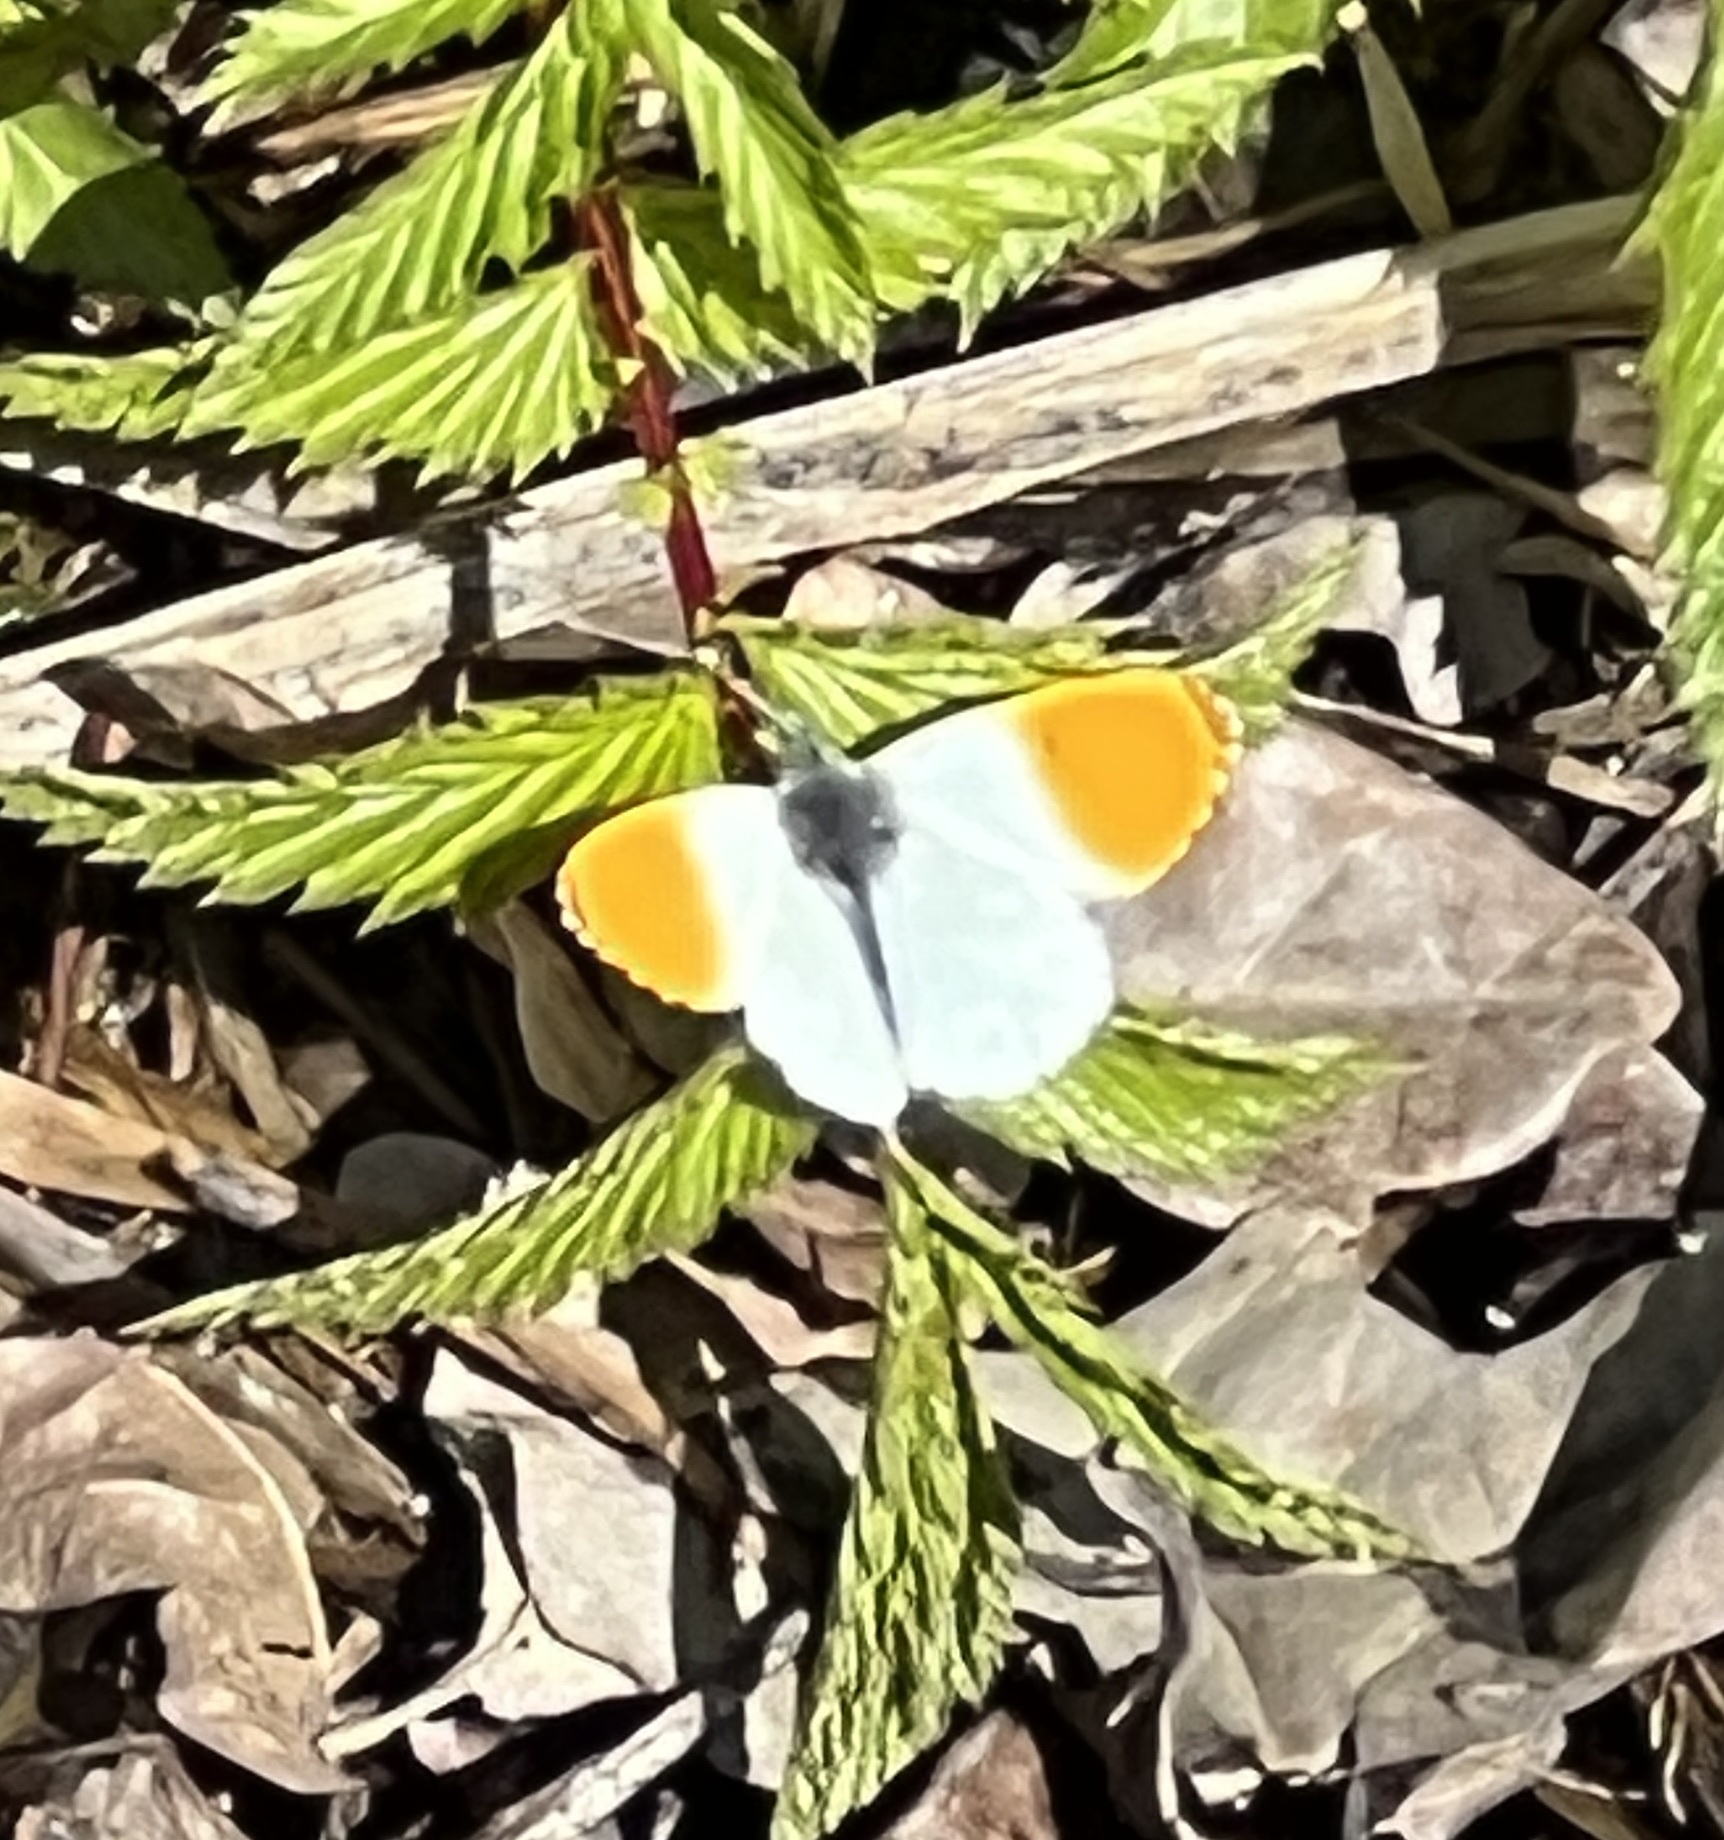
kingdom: Animalia
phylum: Arthropoda
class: Insecta
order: Lepidoptera
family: Pieridae
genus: Anthocharis
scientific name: Anthocharis cardamines
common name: Orange-tip
